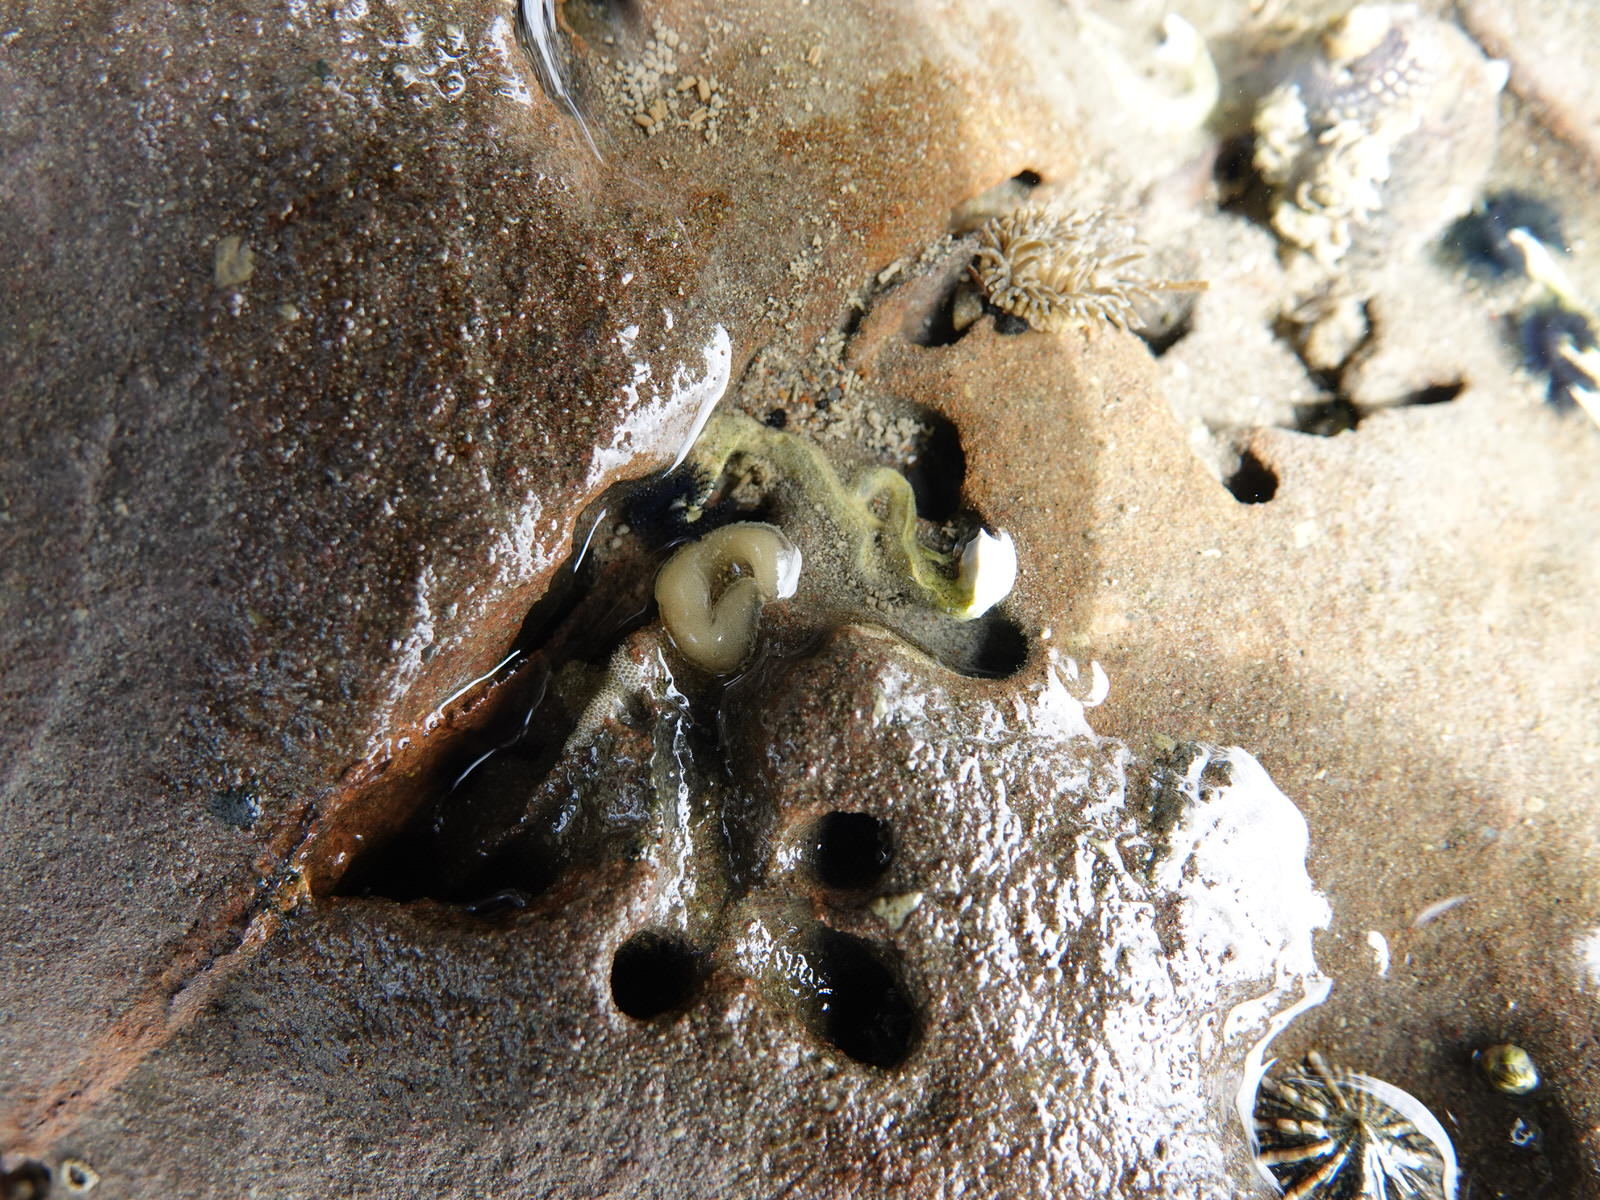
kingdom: Animalia
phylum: Mollusca
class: Gastropoda
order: Siphonariida
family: Siphonariidae
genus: Siphonaria
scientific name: Siphonaria australis
